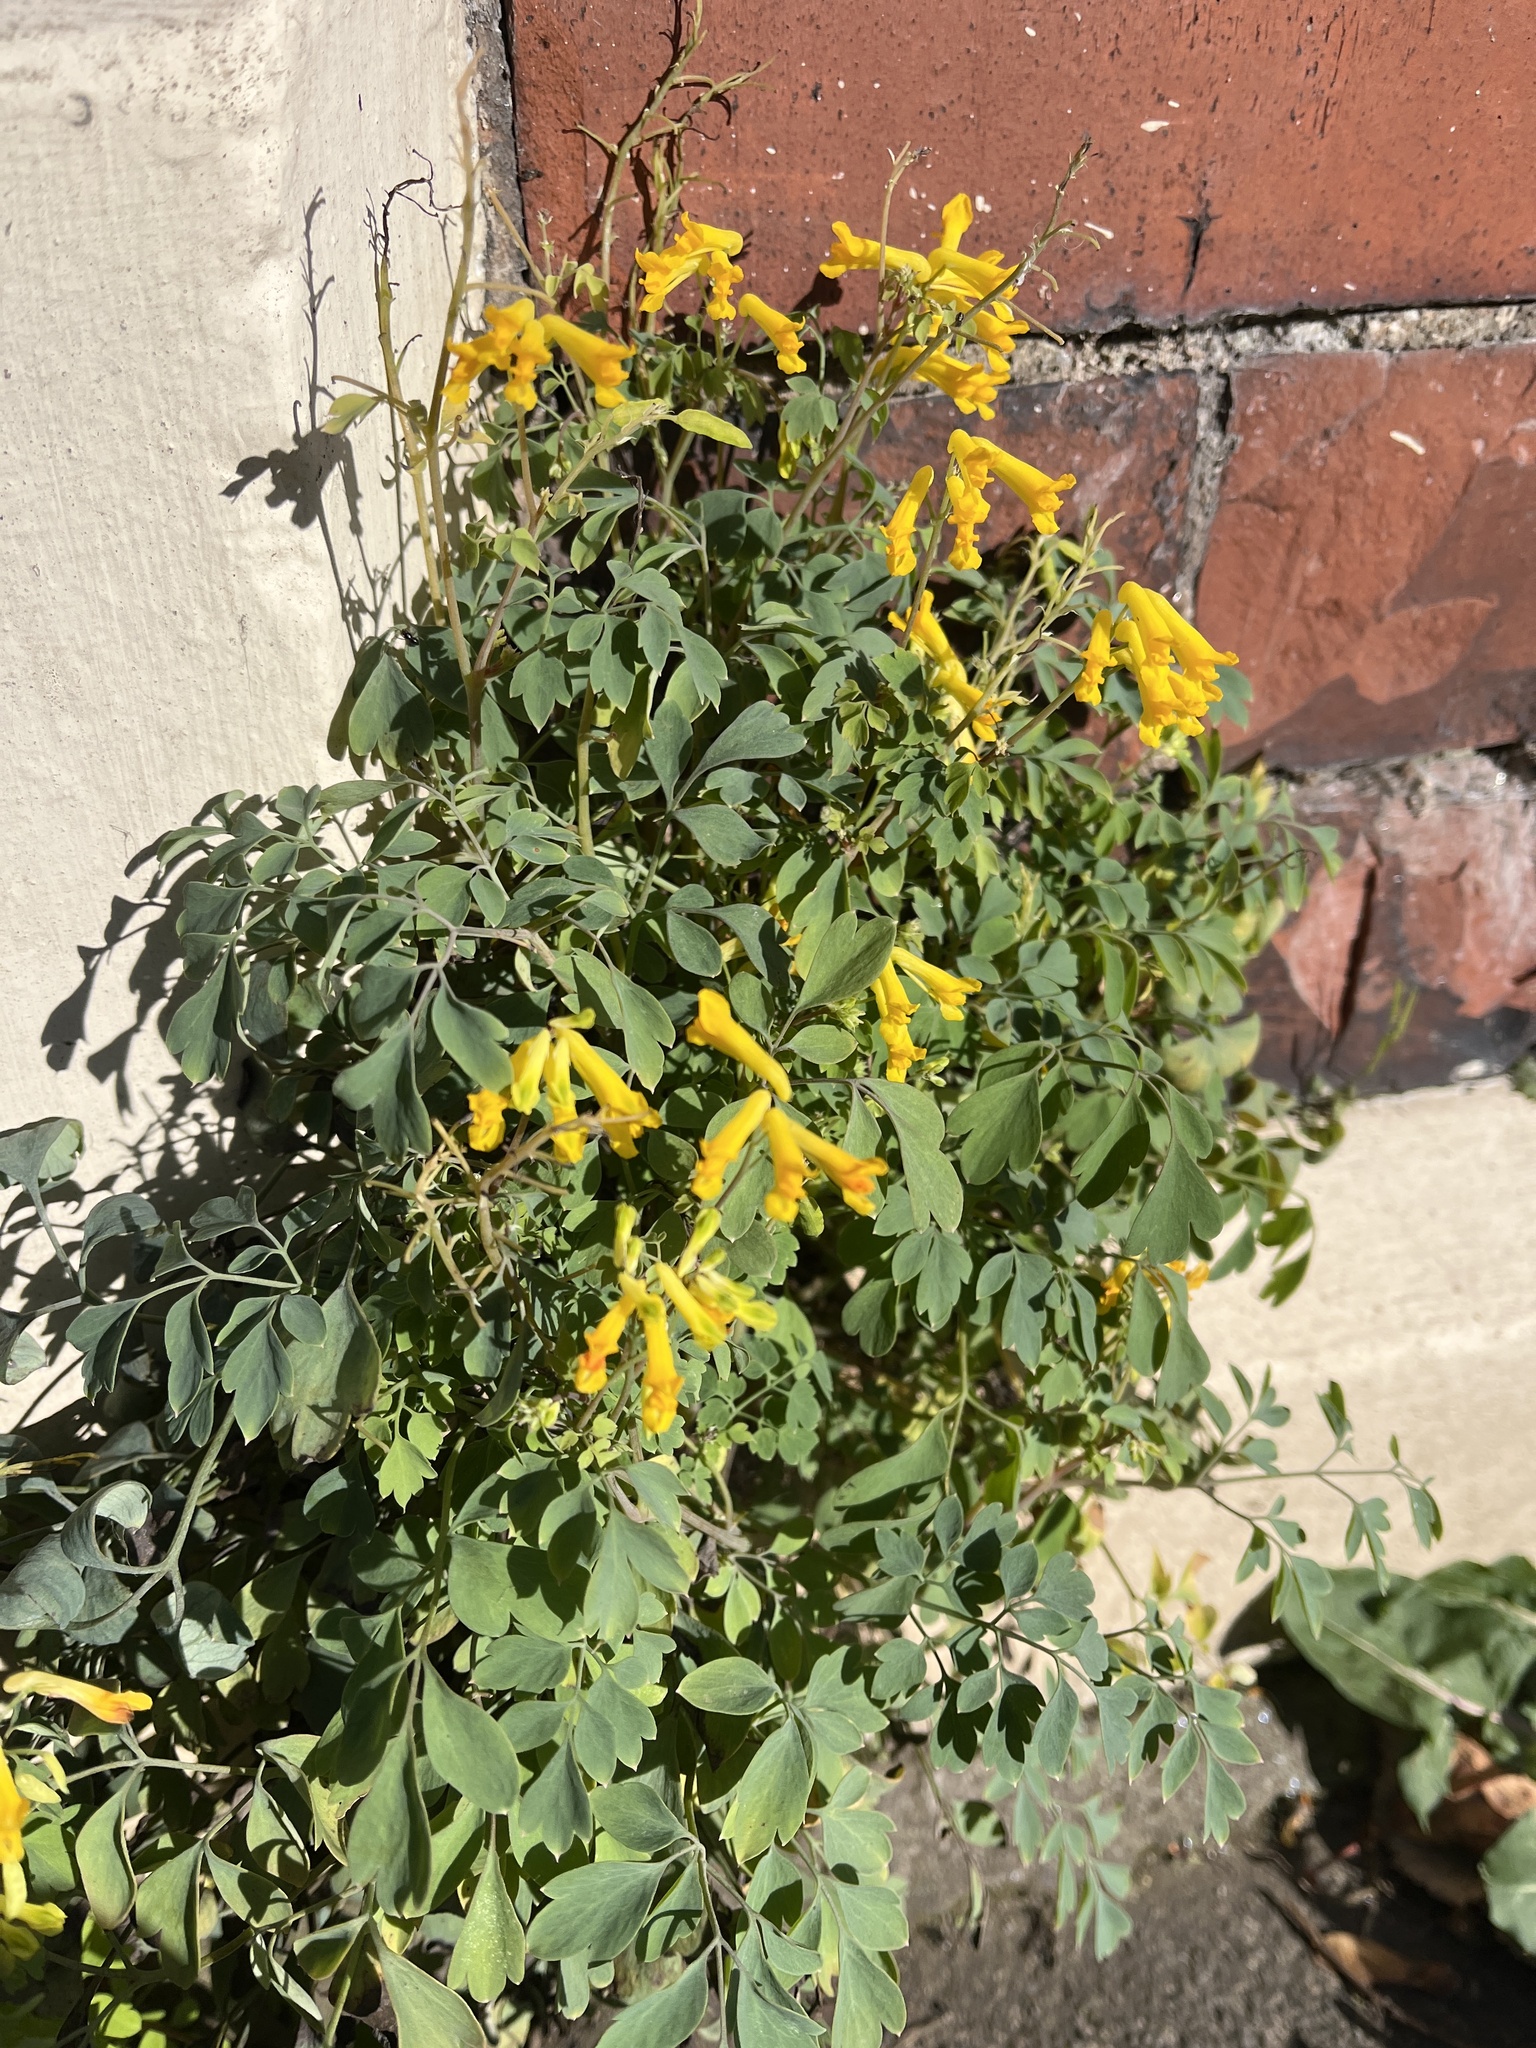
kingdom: Plantae
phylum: Tracheophyta
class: Magnoliopsida
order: Ranunculales
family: Papaveraceae
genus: Pseudofumaria
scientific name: Pseudofumaria lutea
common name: Yellow corydalis
